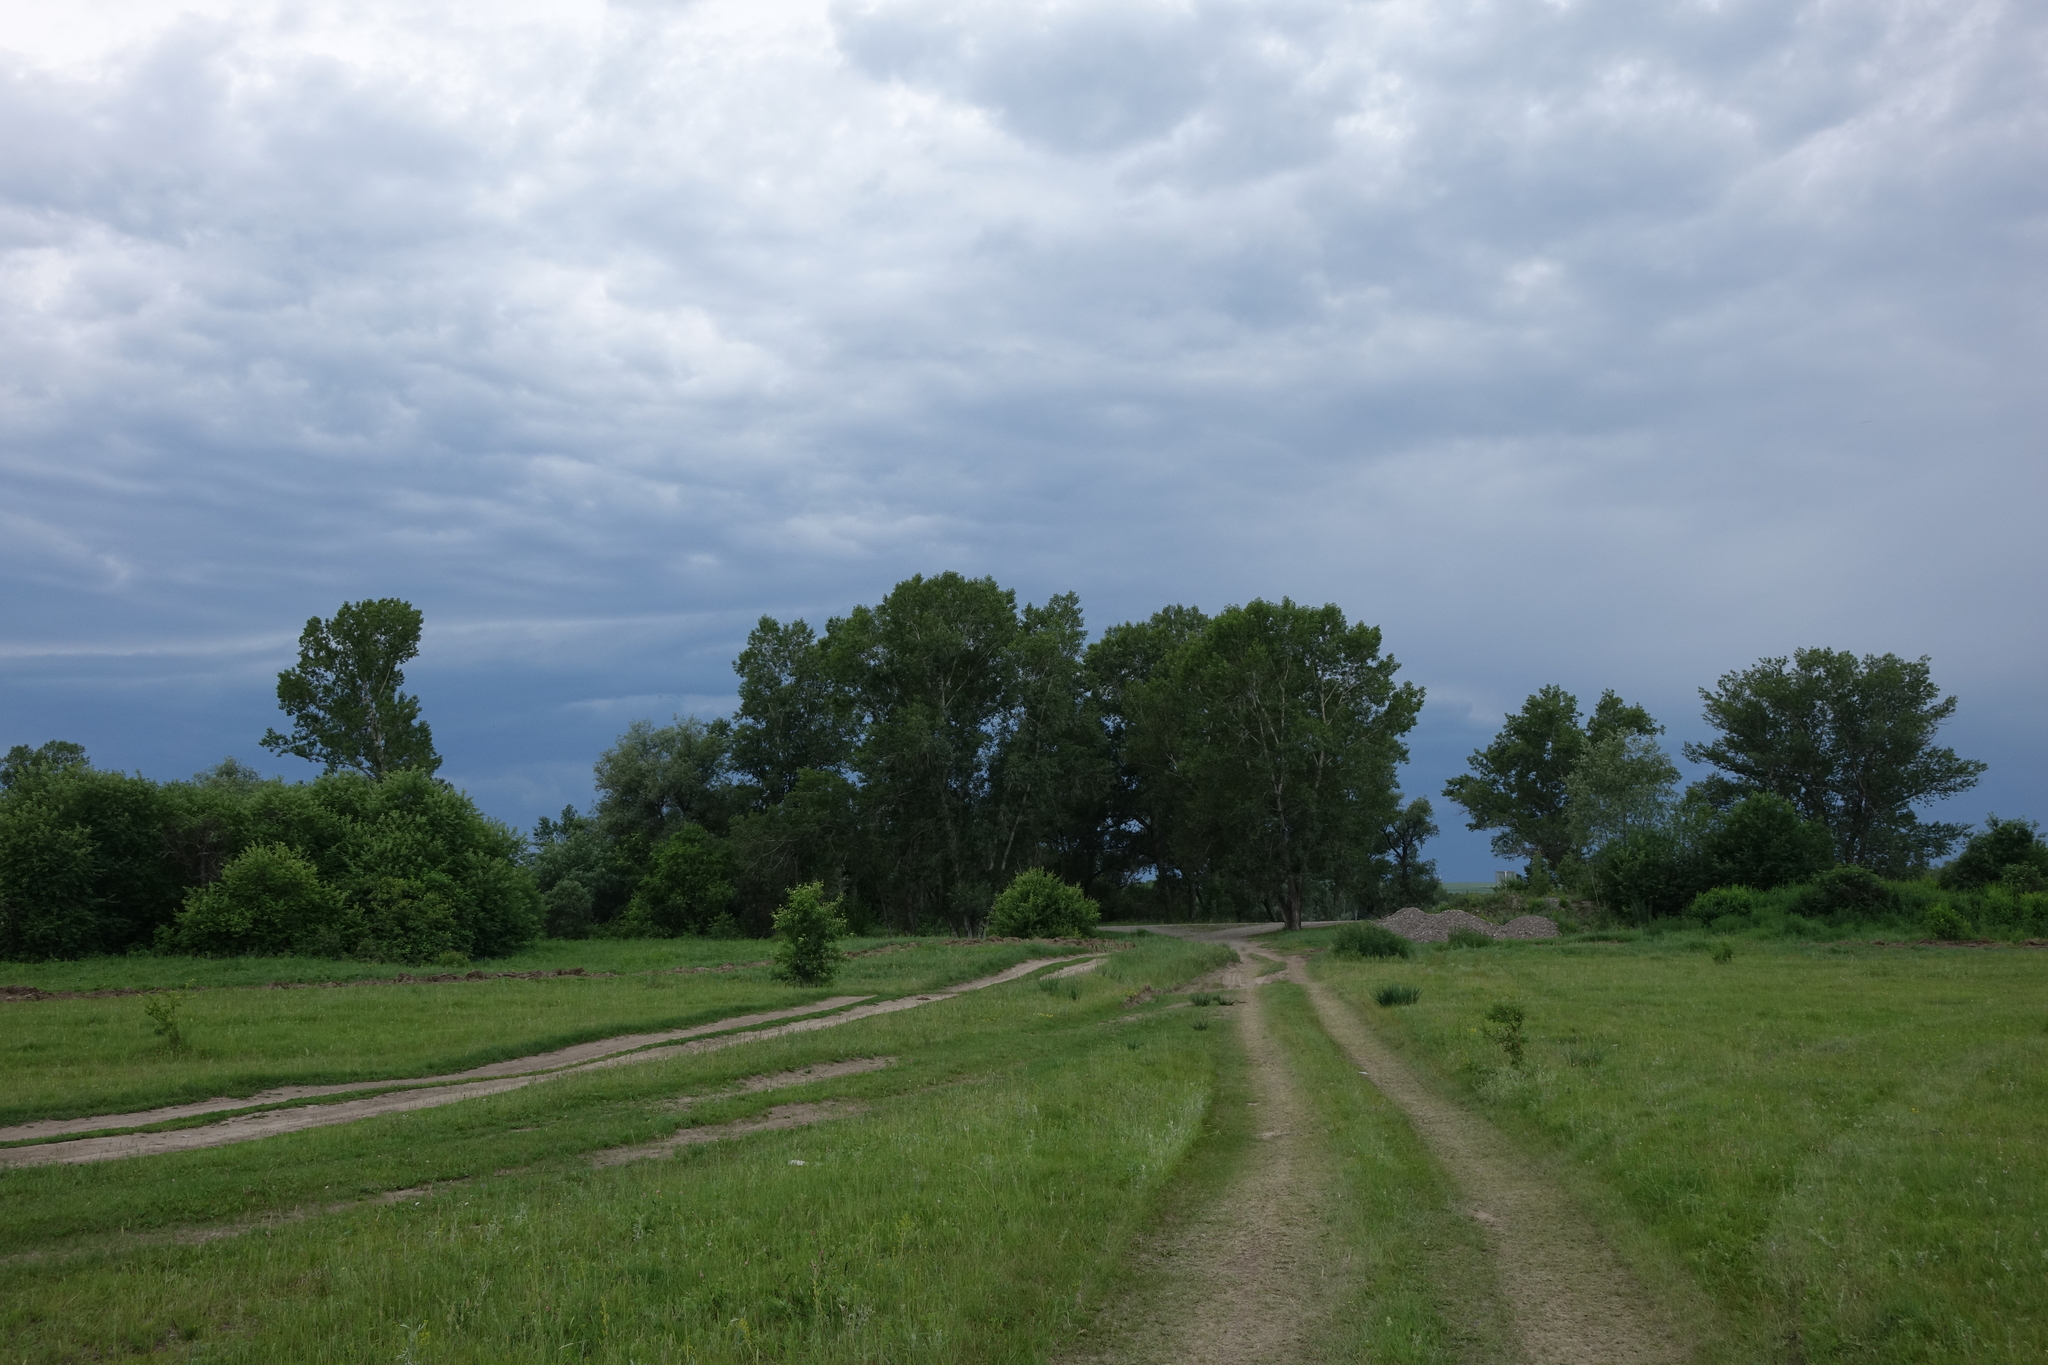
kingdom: Plantae
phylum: Tracheophyta
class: Magnoliopsida
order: Malpighiales
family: Salicaceae
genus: Populus
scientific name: Populus nigra
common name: Black poplar
